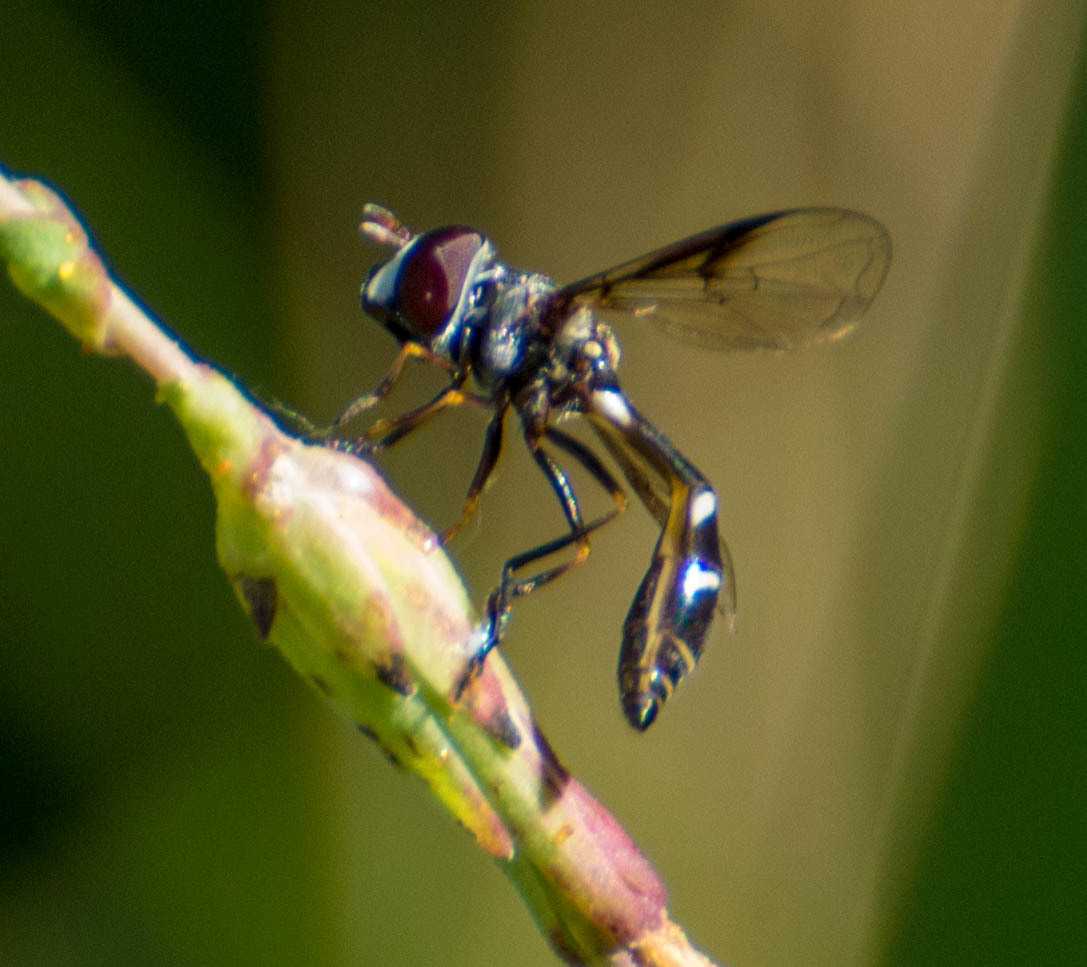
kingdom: Animalia
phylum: Arthropoda
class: Insecta
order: Diptera
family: Syrphidae
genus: Dioprosopa
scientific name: Dioprosopa clavatus
